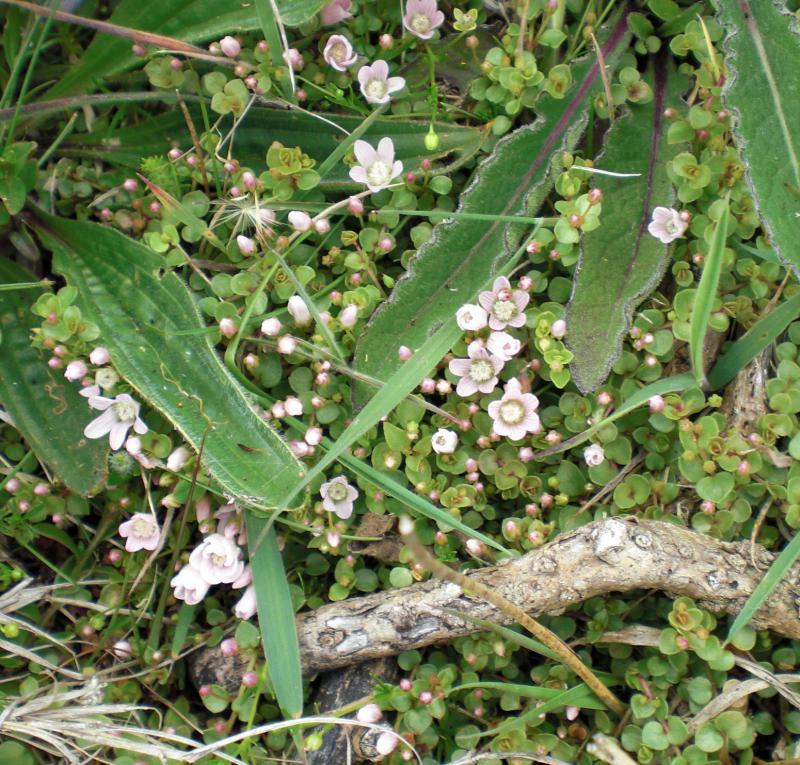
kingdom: Plantae
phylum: Tracheophyta
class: Magnoliopsida
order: Ericales
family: Primulaceae
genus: Lysimachia
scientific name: Lysimachia tenella
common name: European bog pimpernel
